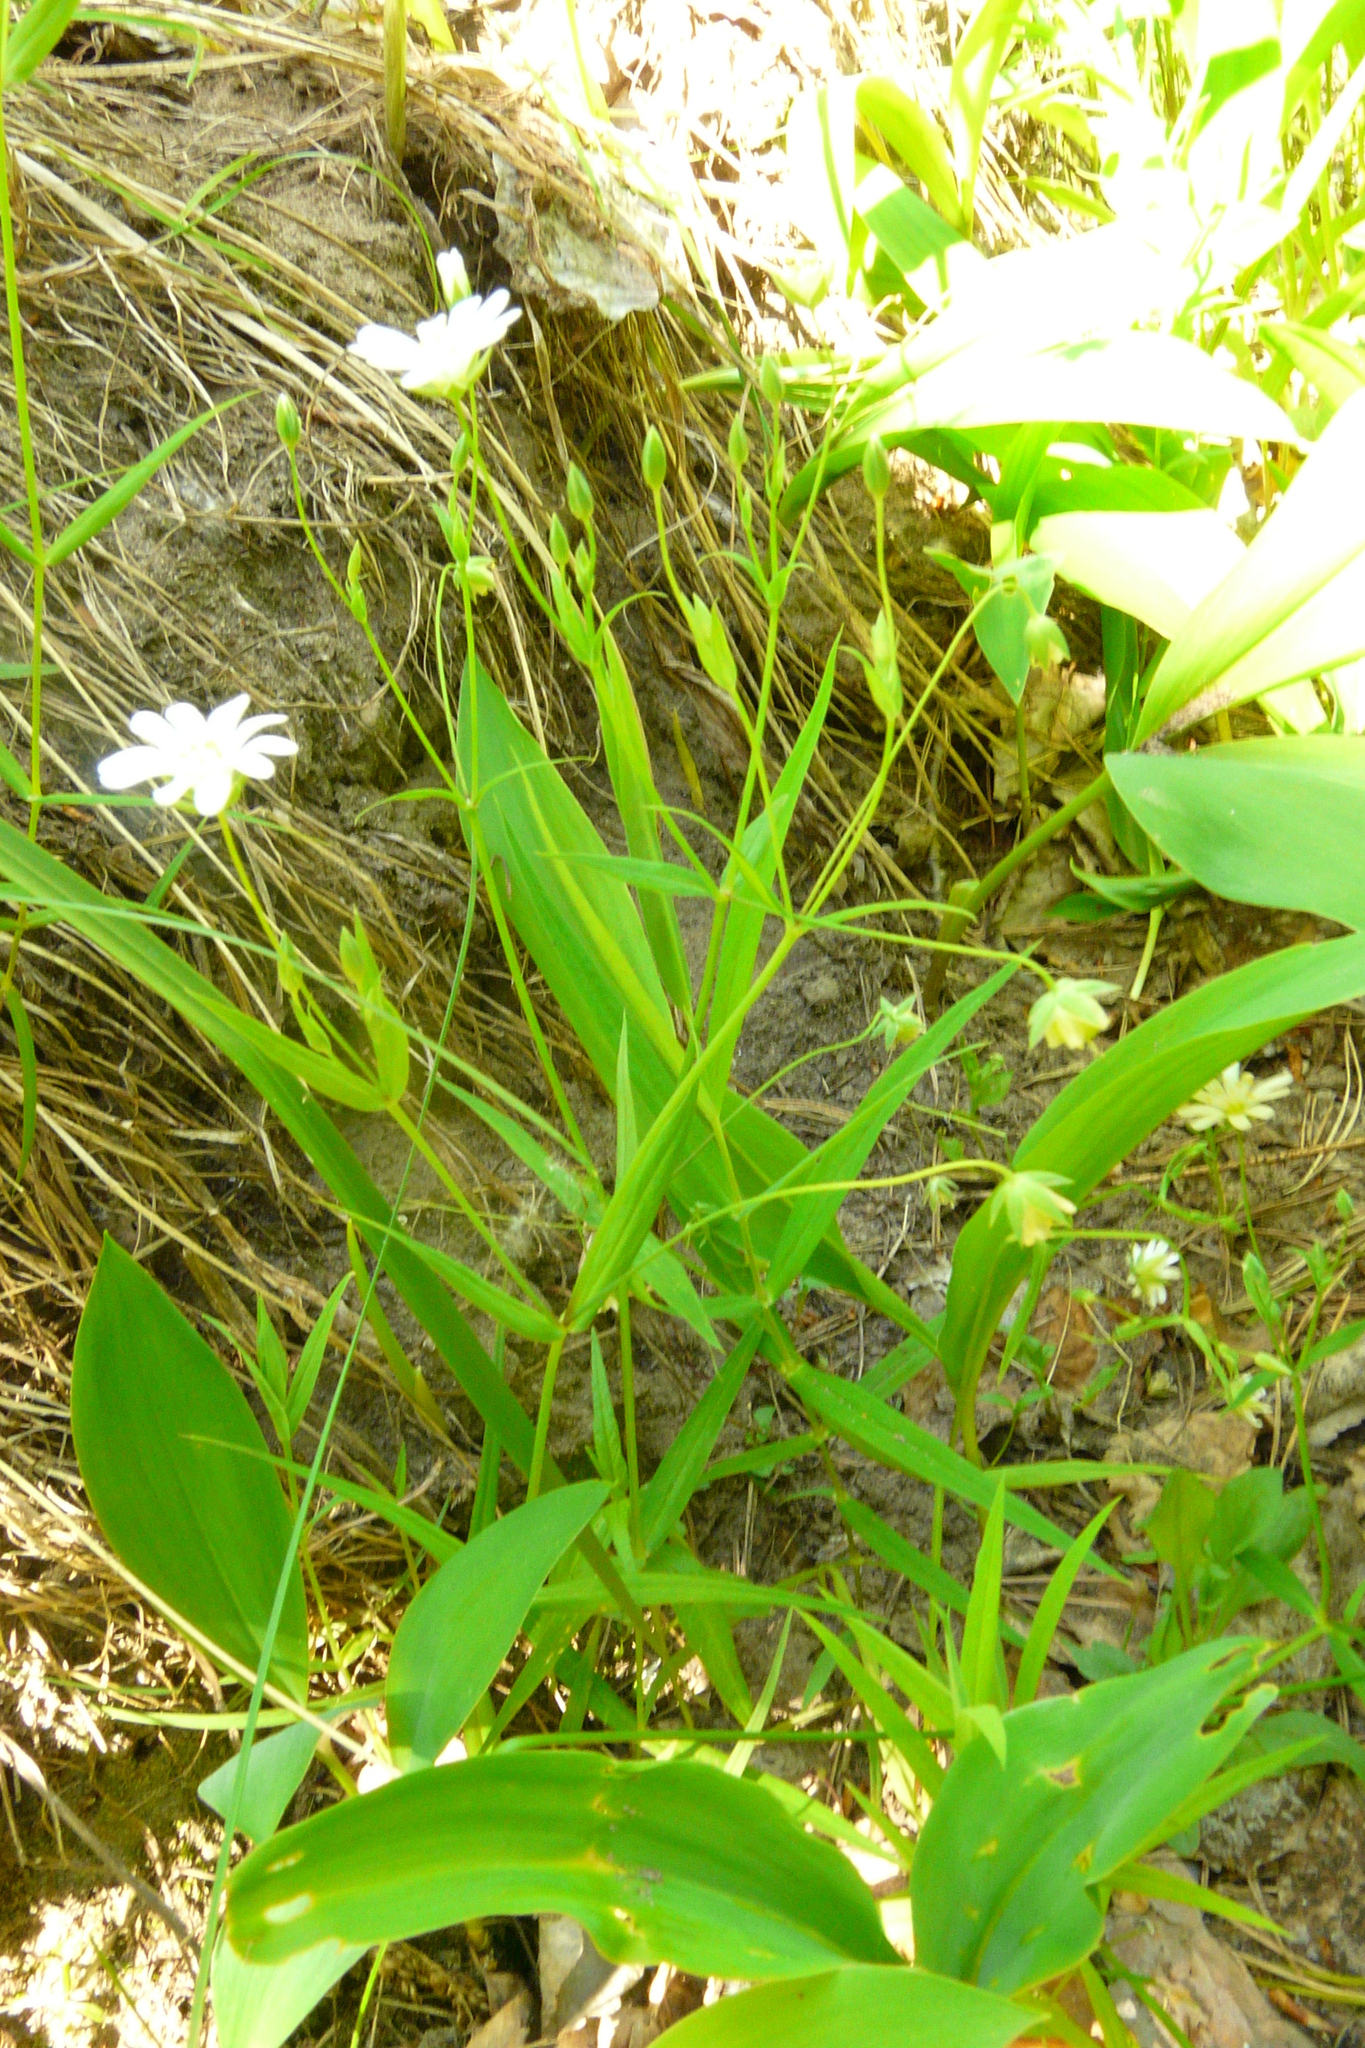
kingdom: Plantae
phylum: Tracheophyta
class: Magnoliopsida
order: Caryophyllales
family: Caryophyllaceae
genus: Rabelera
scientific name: Rabelera holostea
